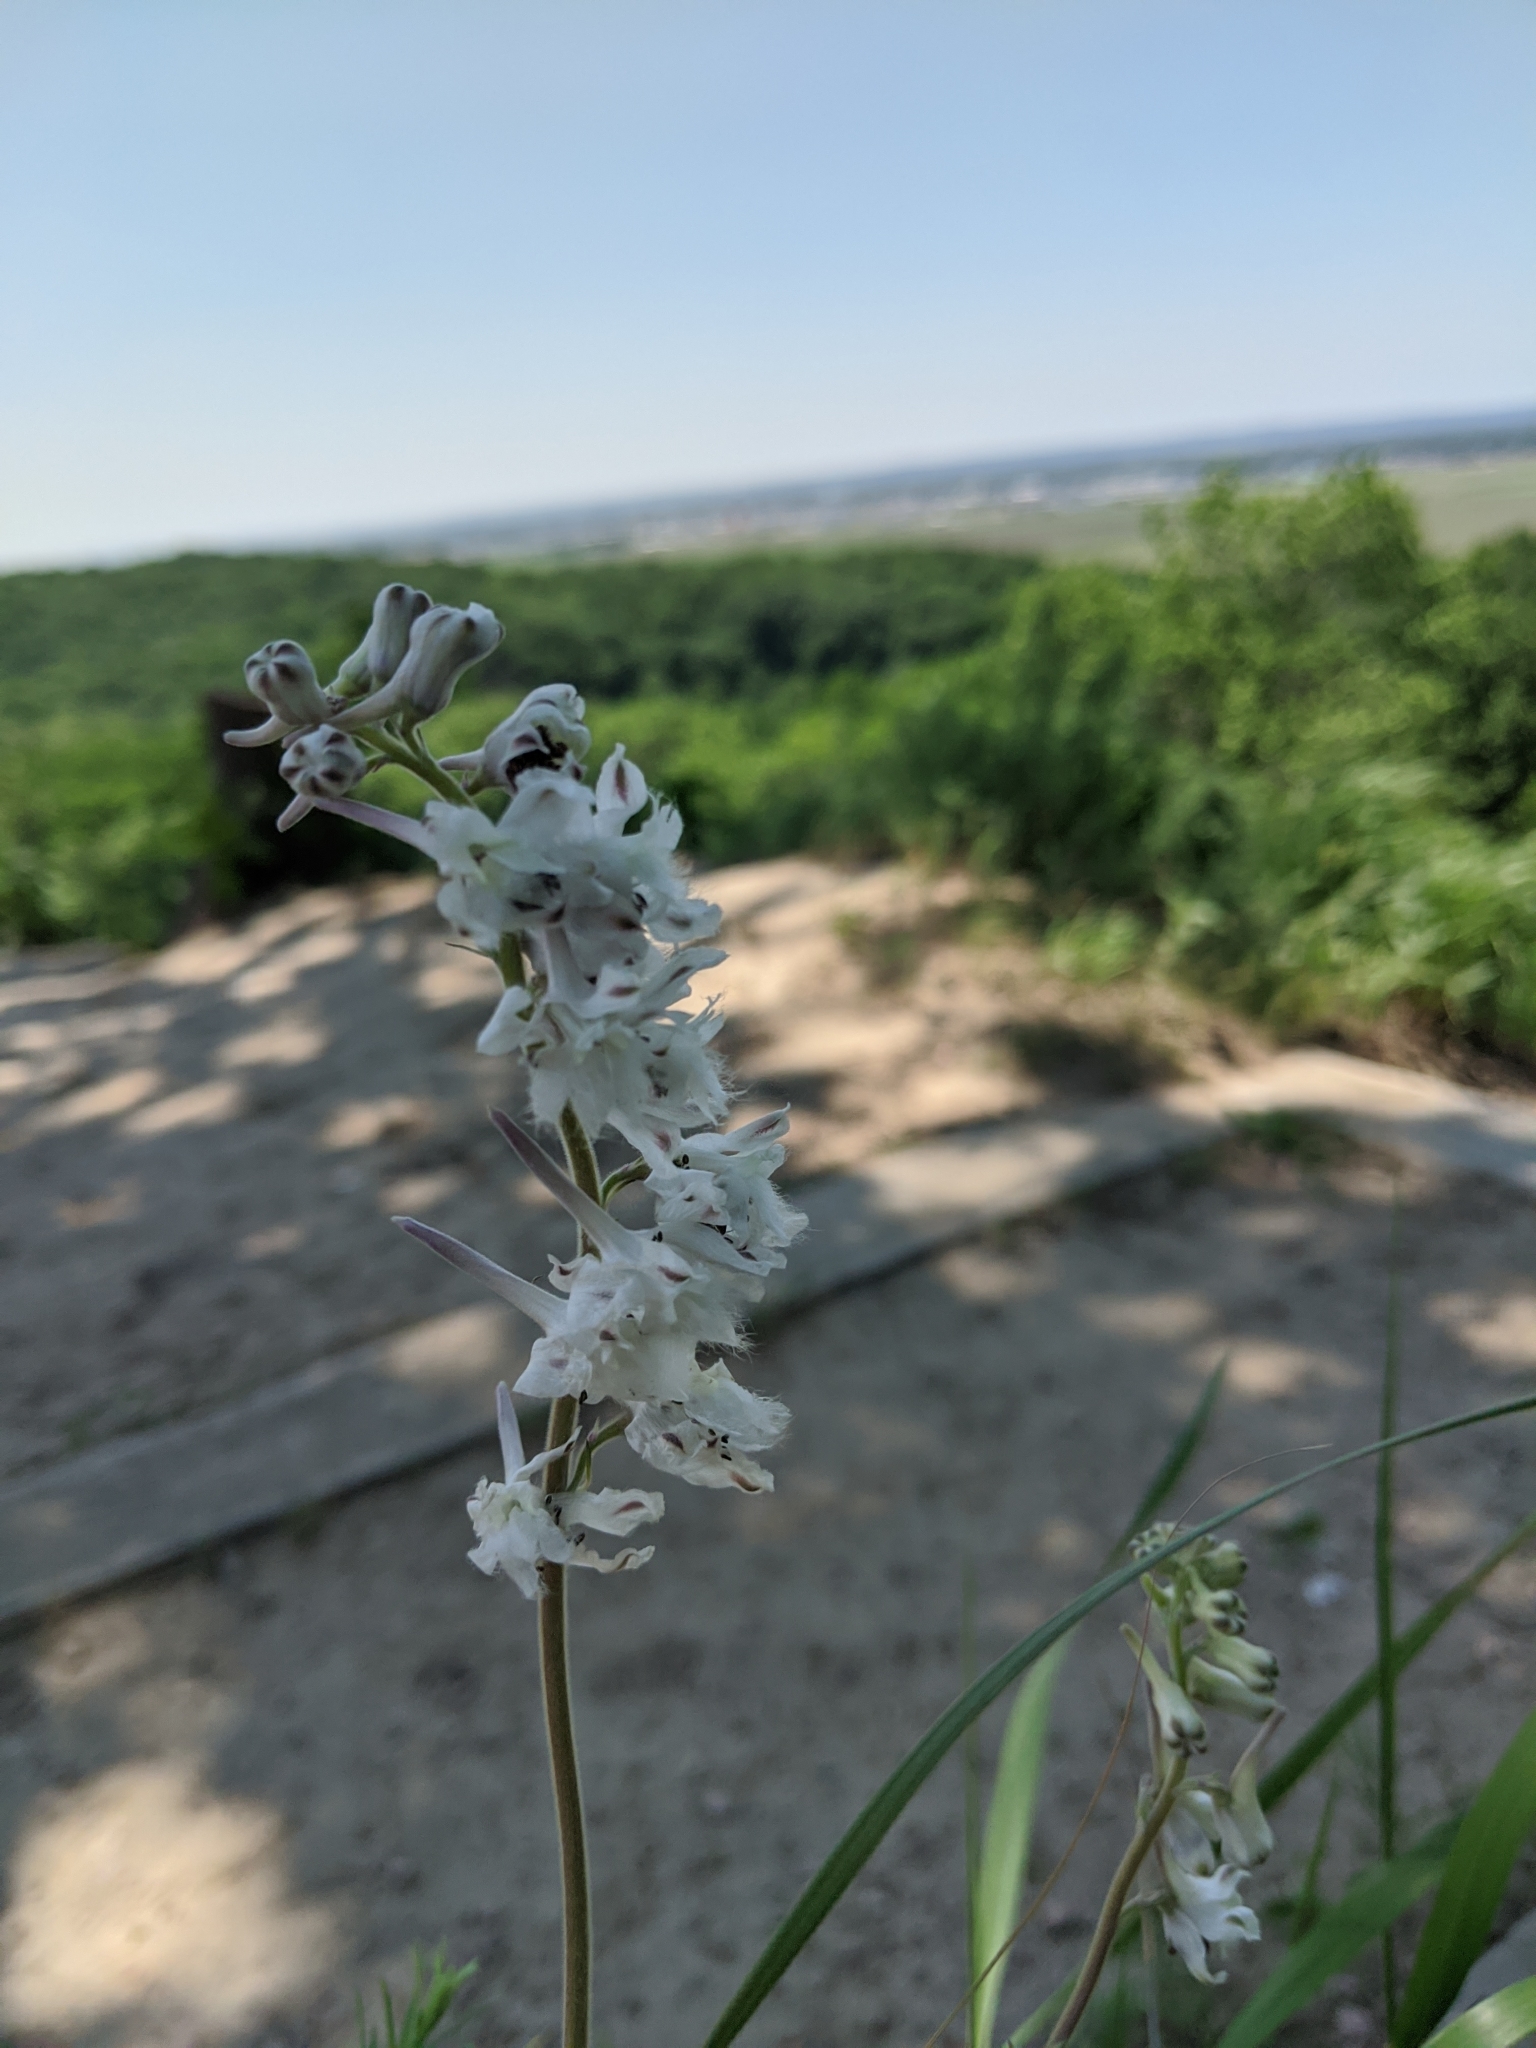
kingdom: Plantae
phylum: Tracheophyta
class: Magnoliopsida
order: Ranunculales
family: Ranunculaceae
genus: Delphinium
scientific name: Delphinium carolinianum
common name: Carolina larkspur
